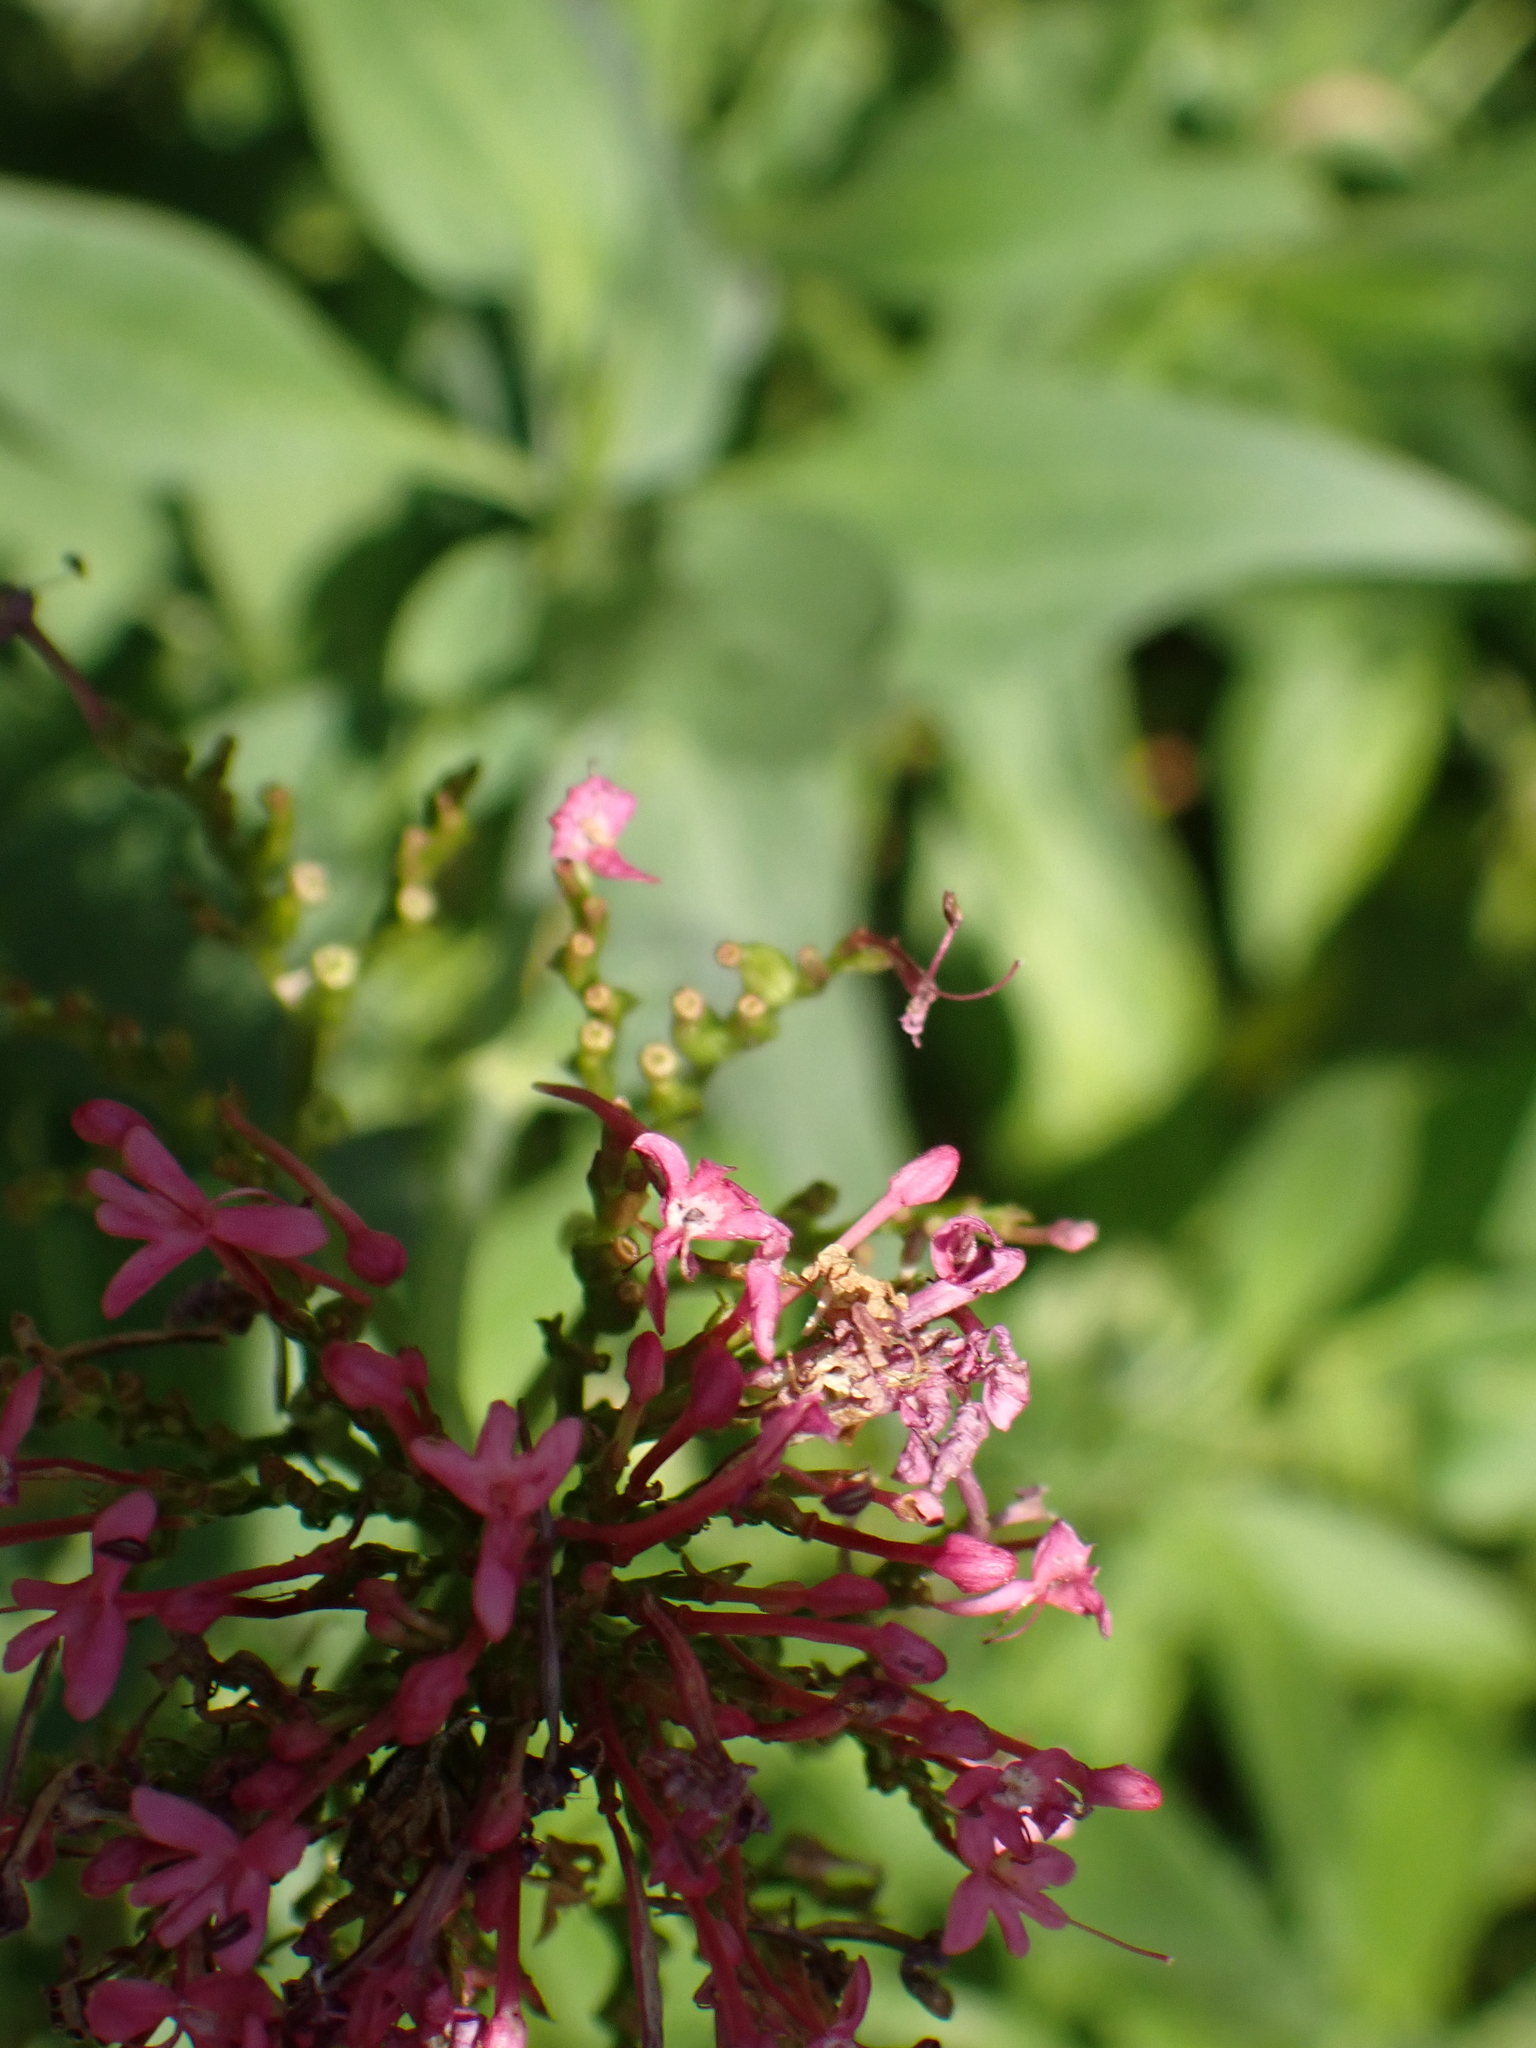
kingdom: Plantae
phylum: Tracheophyta
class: Magnoliopsida
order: Dipsacales
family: Caprifoliaceae
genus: Centranthus
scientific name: Centranthus ruber
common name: Red valerian
